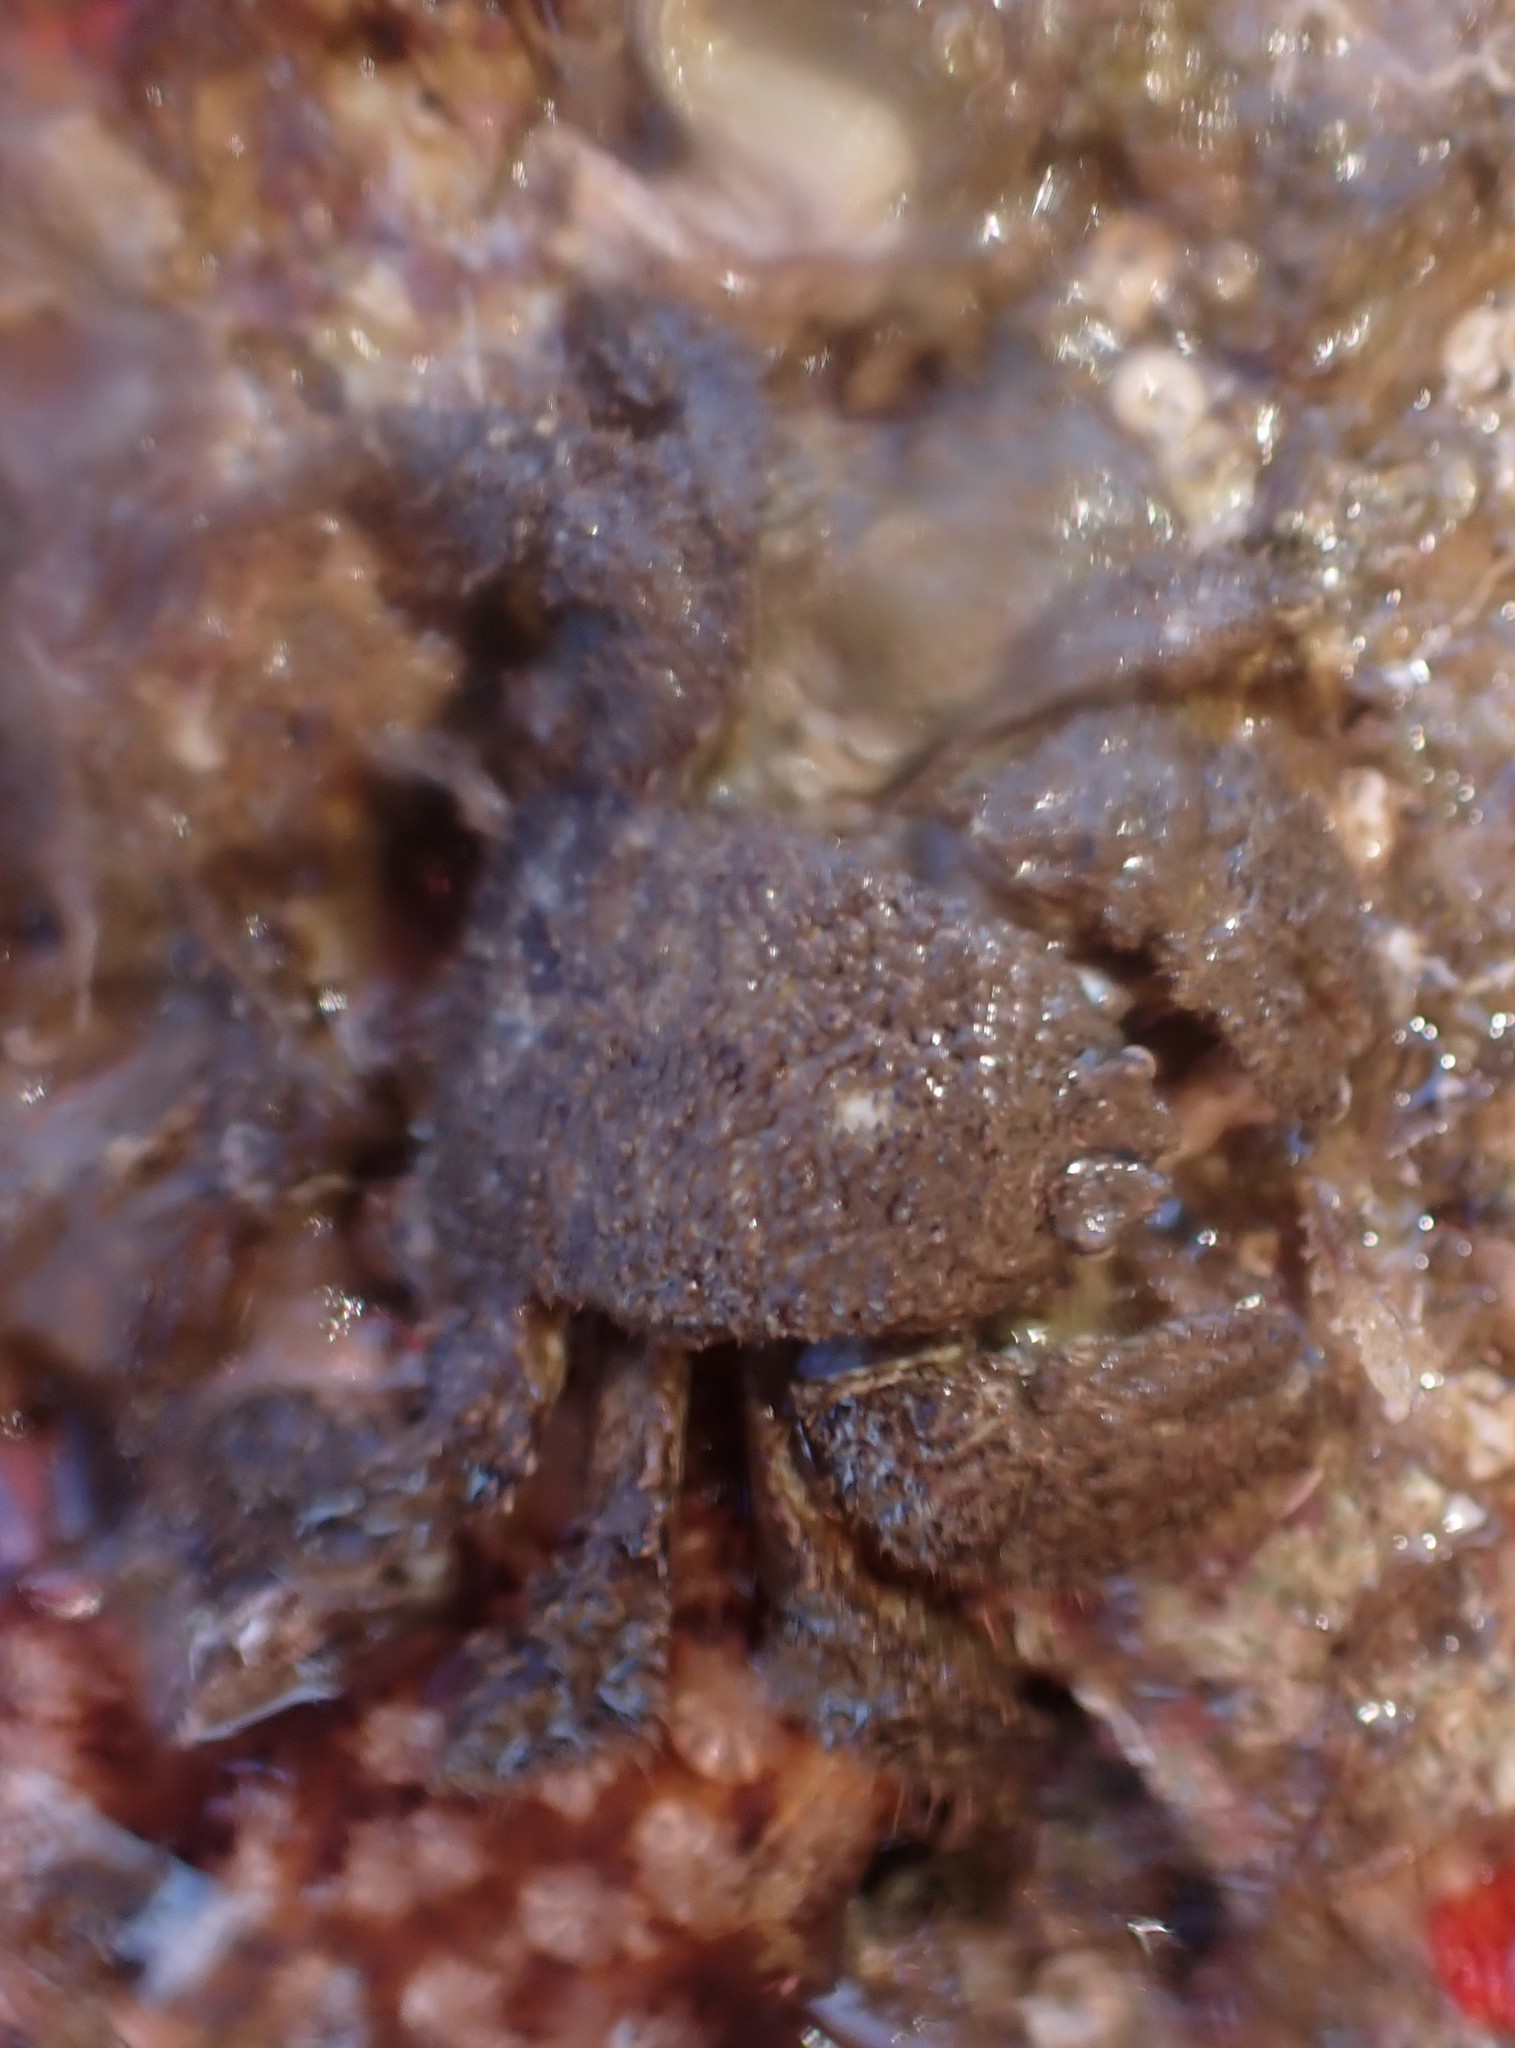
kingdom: Animalia
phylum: Arthropoda
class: Malacostraca
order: Decapoda
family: Lomisidae
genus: Lomis
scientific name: Lomis hirta
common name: Hairy stone crab
